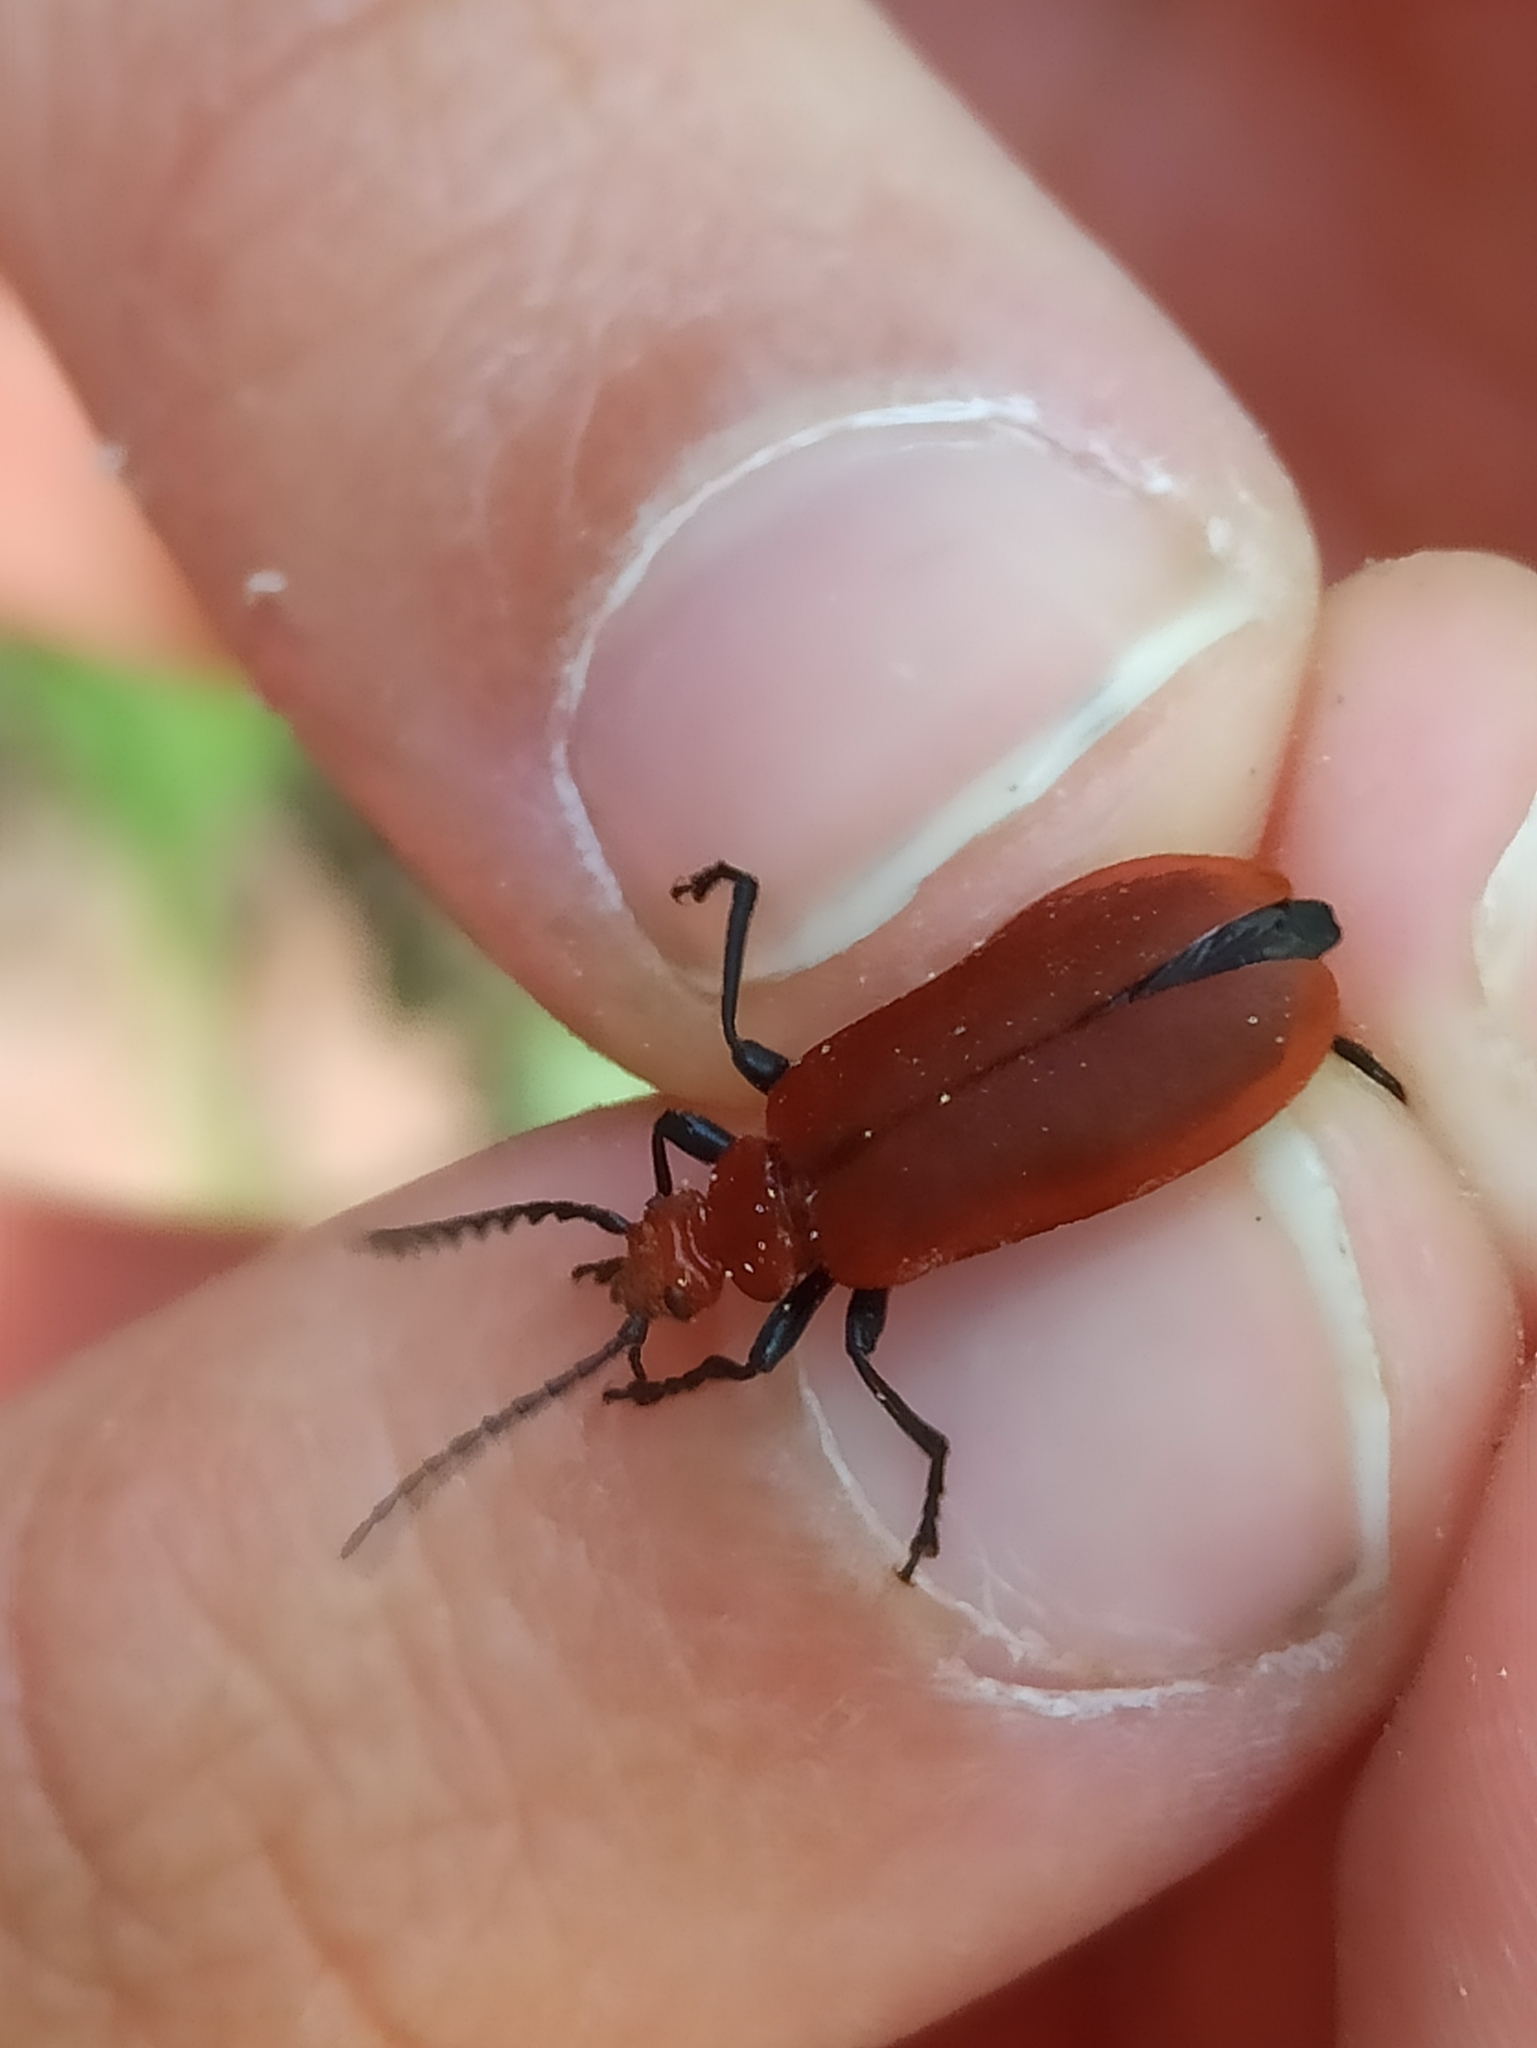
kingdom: Animalia
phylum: Arthropoda
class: Insecta
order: Coleoptera
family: Pyrochroidae
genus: Pyrochroa
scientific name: Pyrochroa serraticornis
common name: Red-headed cardinal beetle
